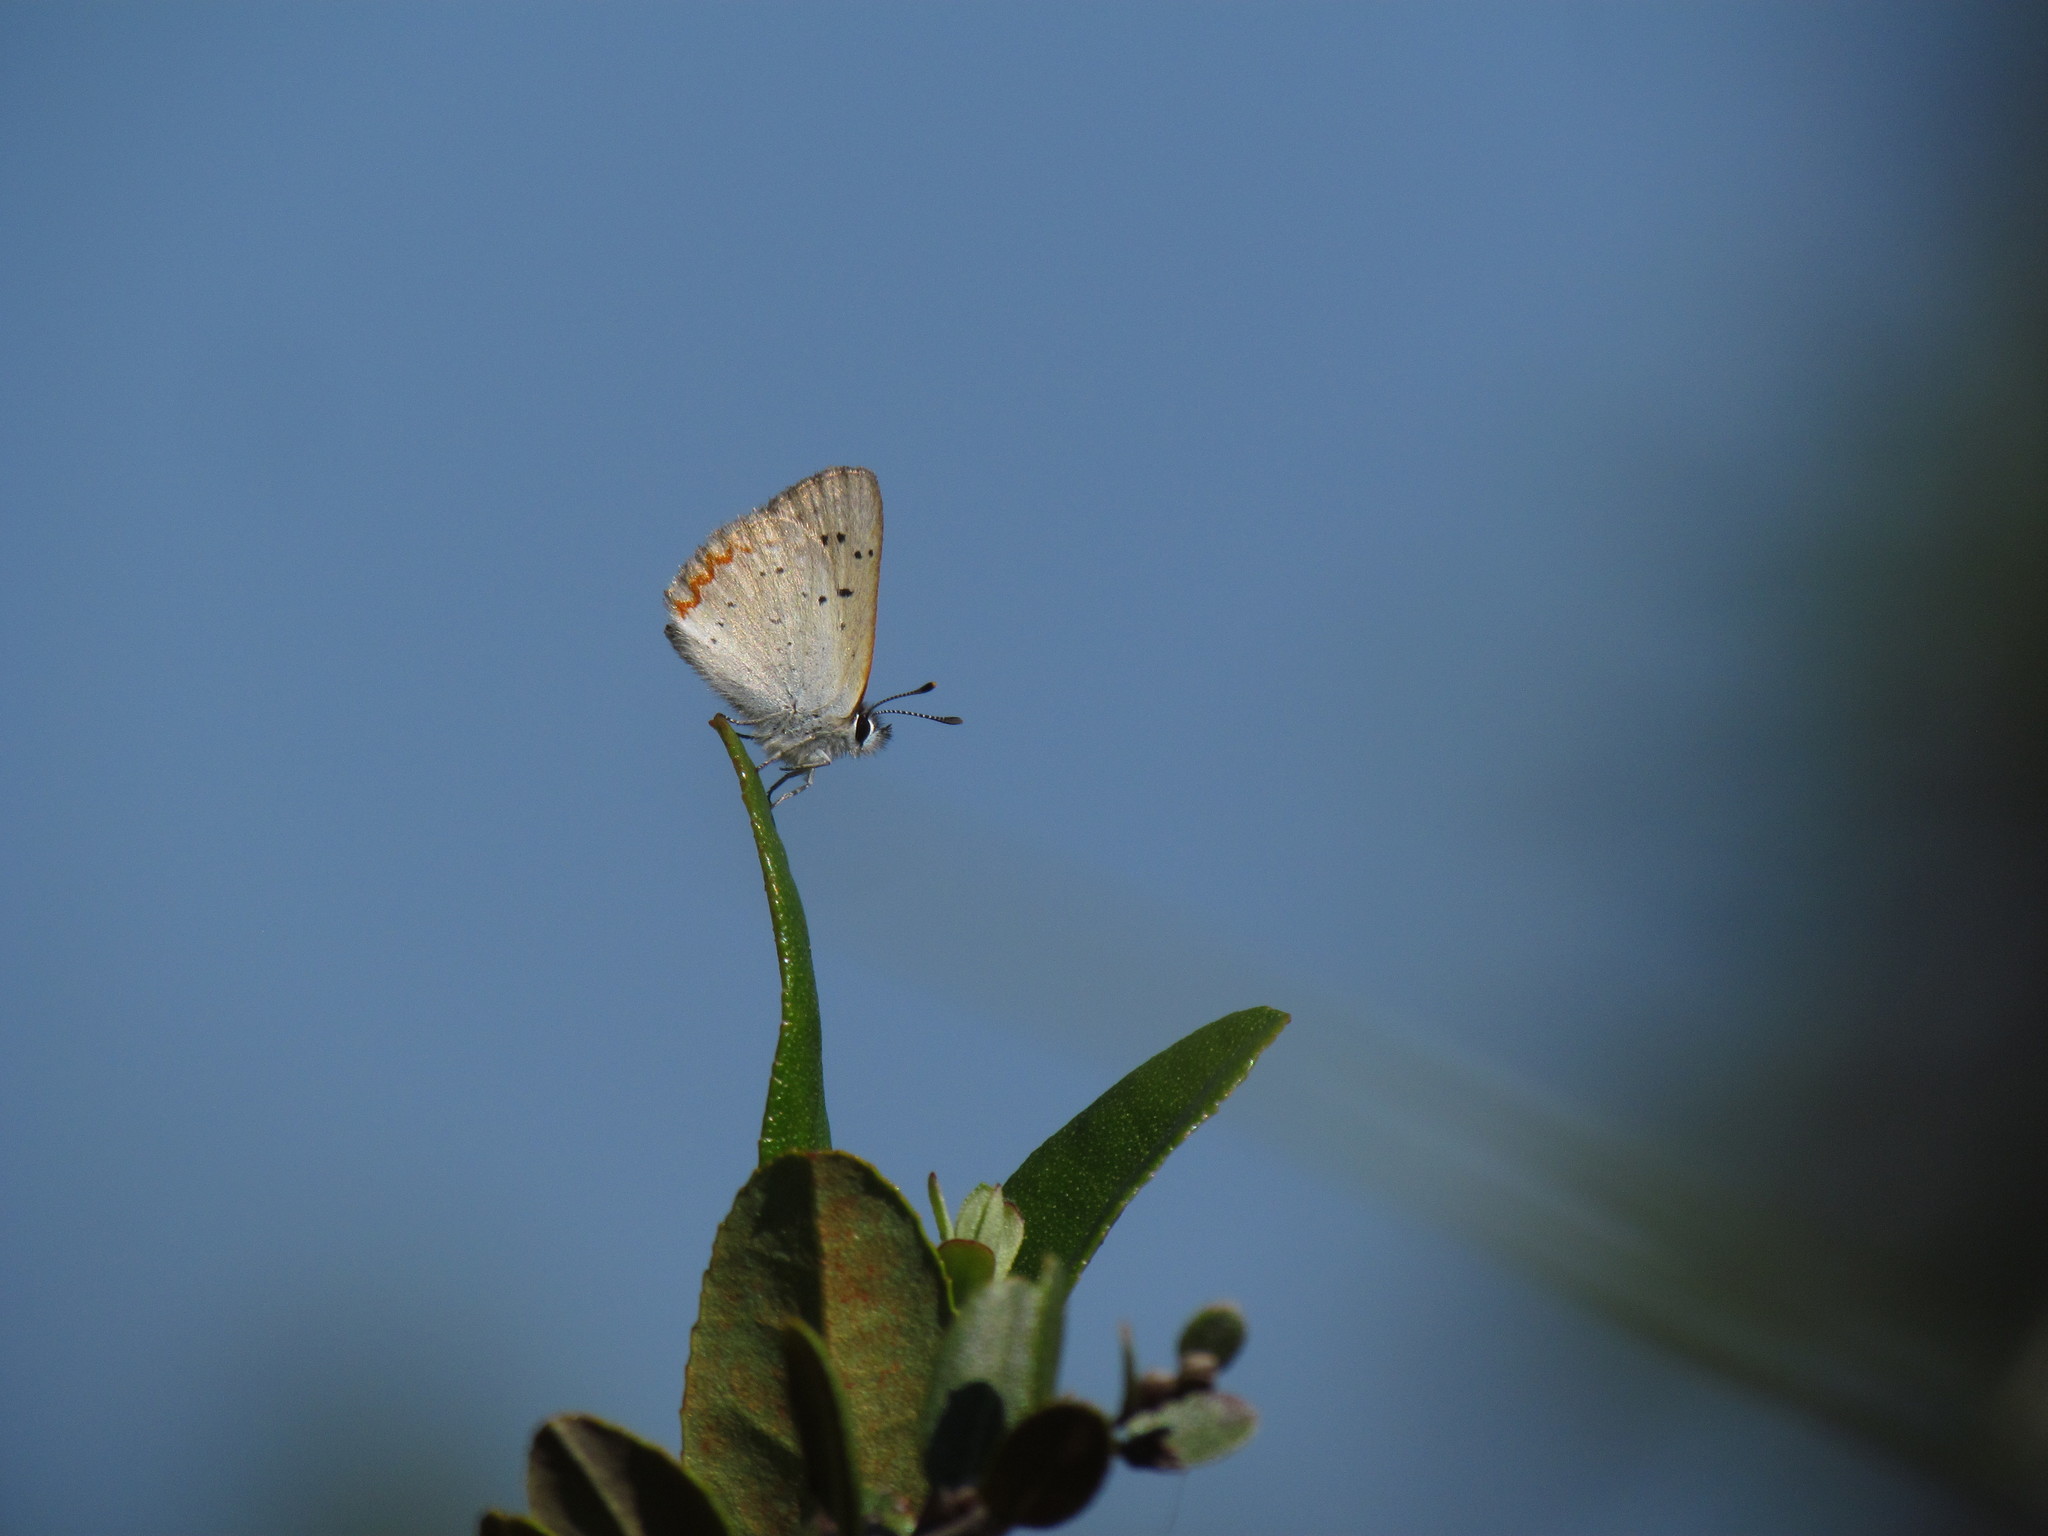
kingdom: Animalia
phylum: Arthropoda
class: Insecta
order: Lepidoptera
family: Lycaenidae
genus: Tharsalea
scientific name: Tharsalea epixanthe
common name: Bog copper
